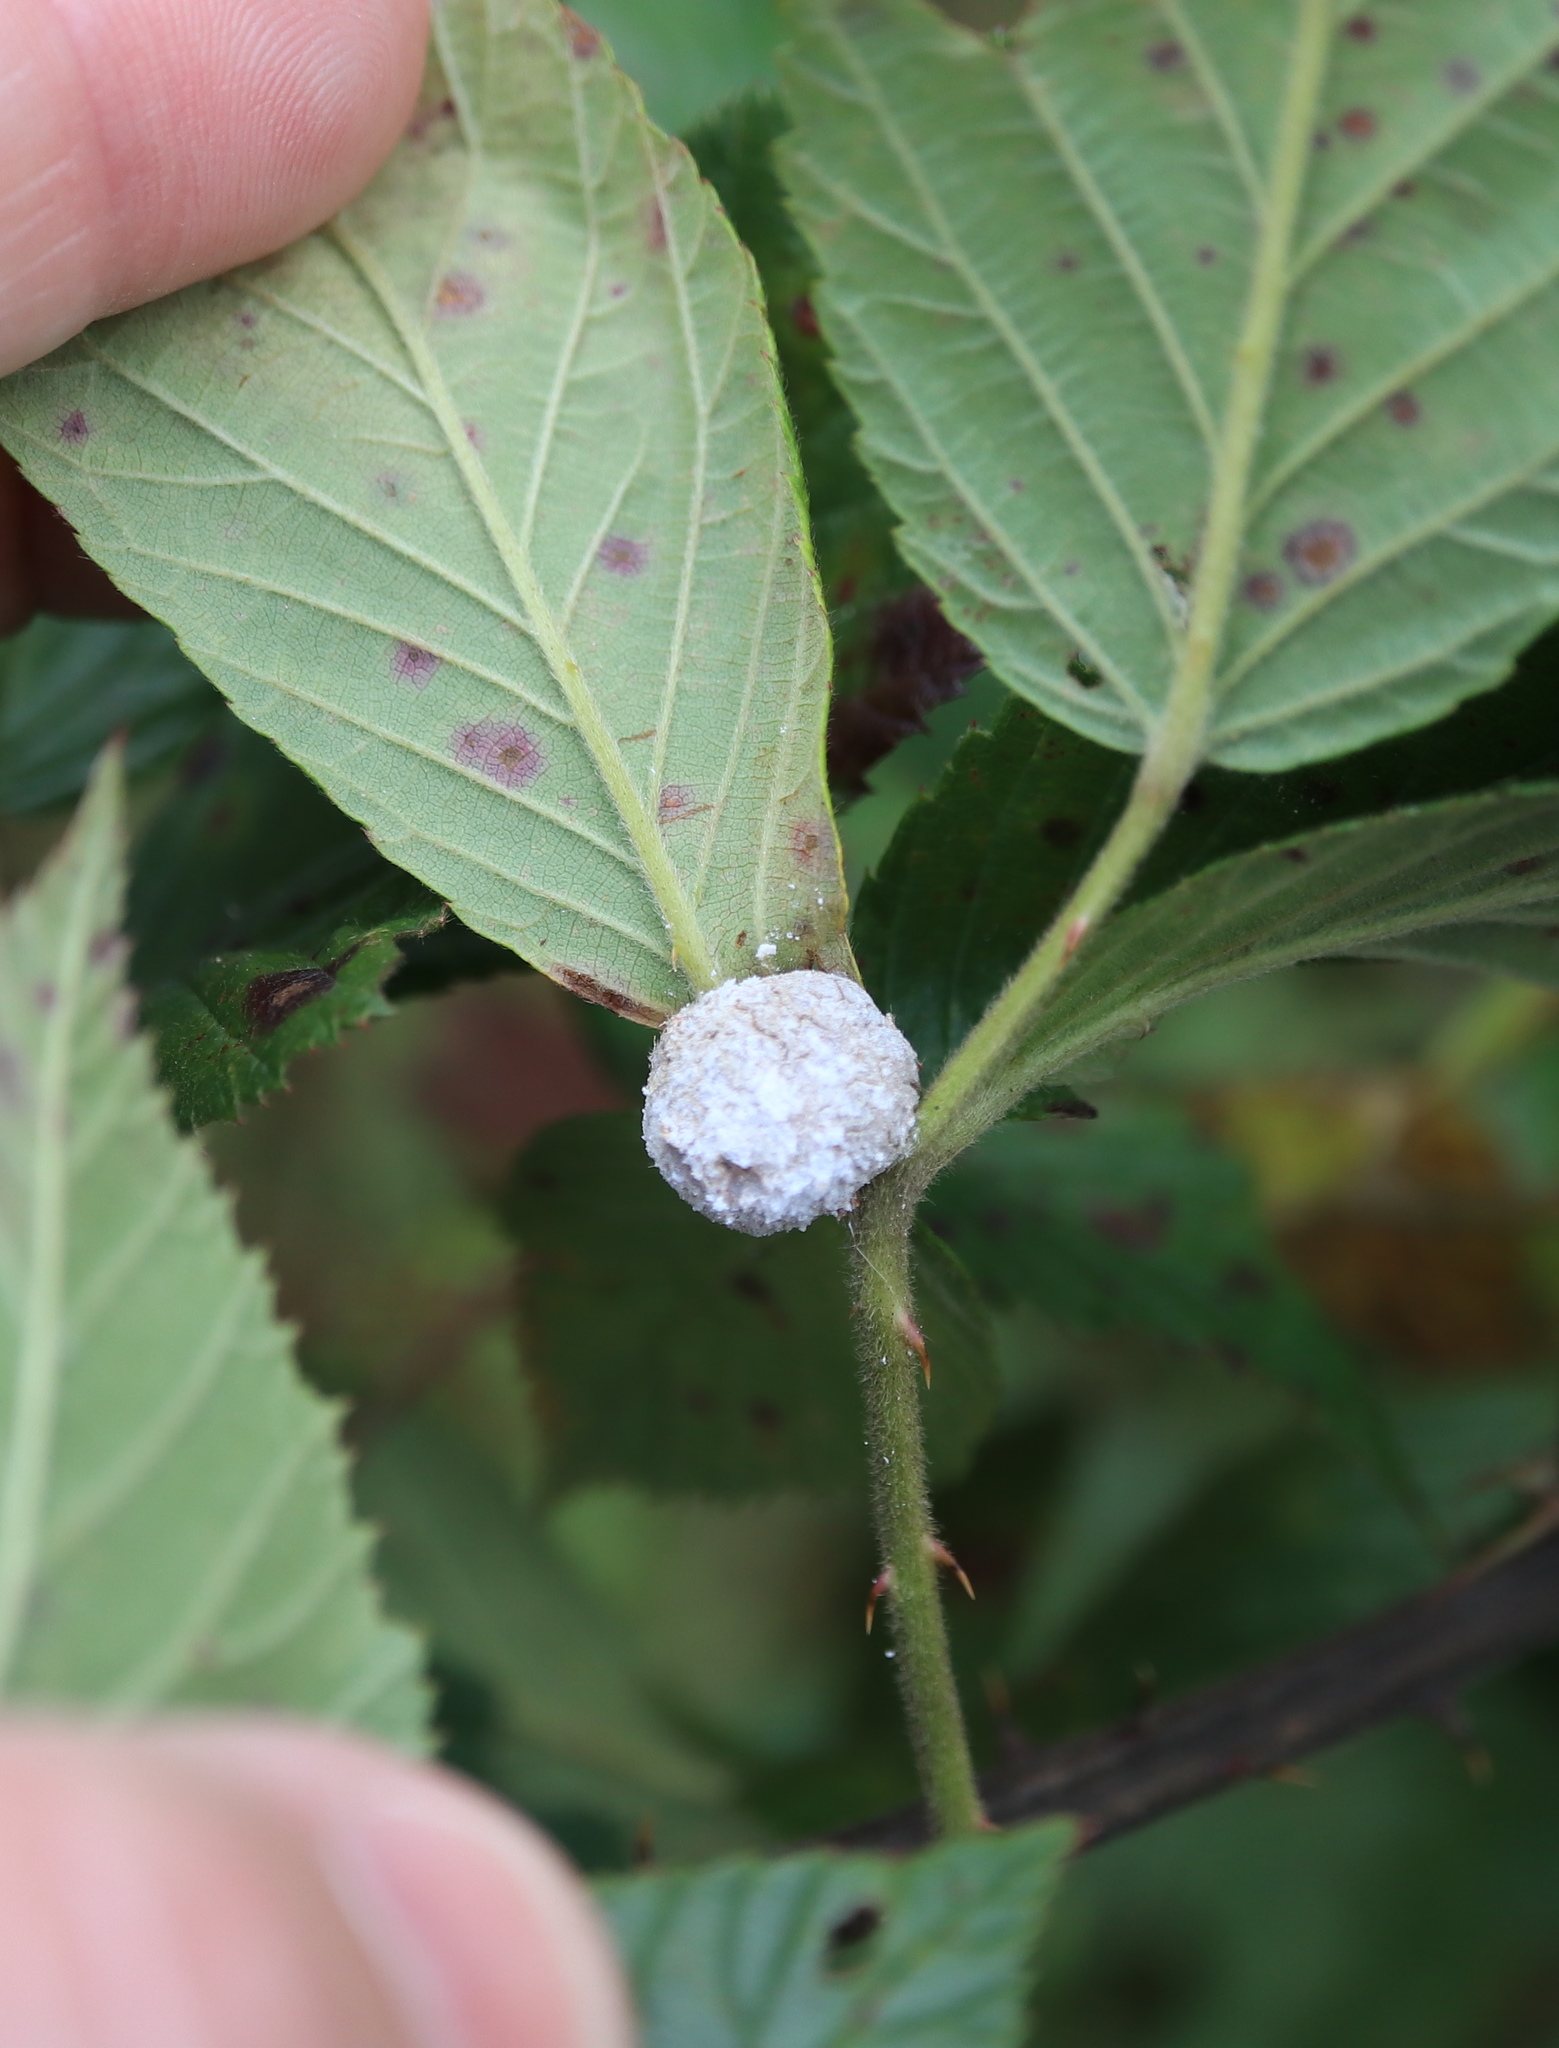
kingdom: Animalia
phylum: Arthropoda
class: Insecta
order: Diptera
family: Cecidomyiidae
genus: Neolasioptera
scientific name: Neolasioptera farinosa
